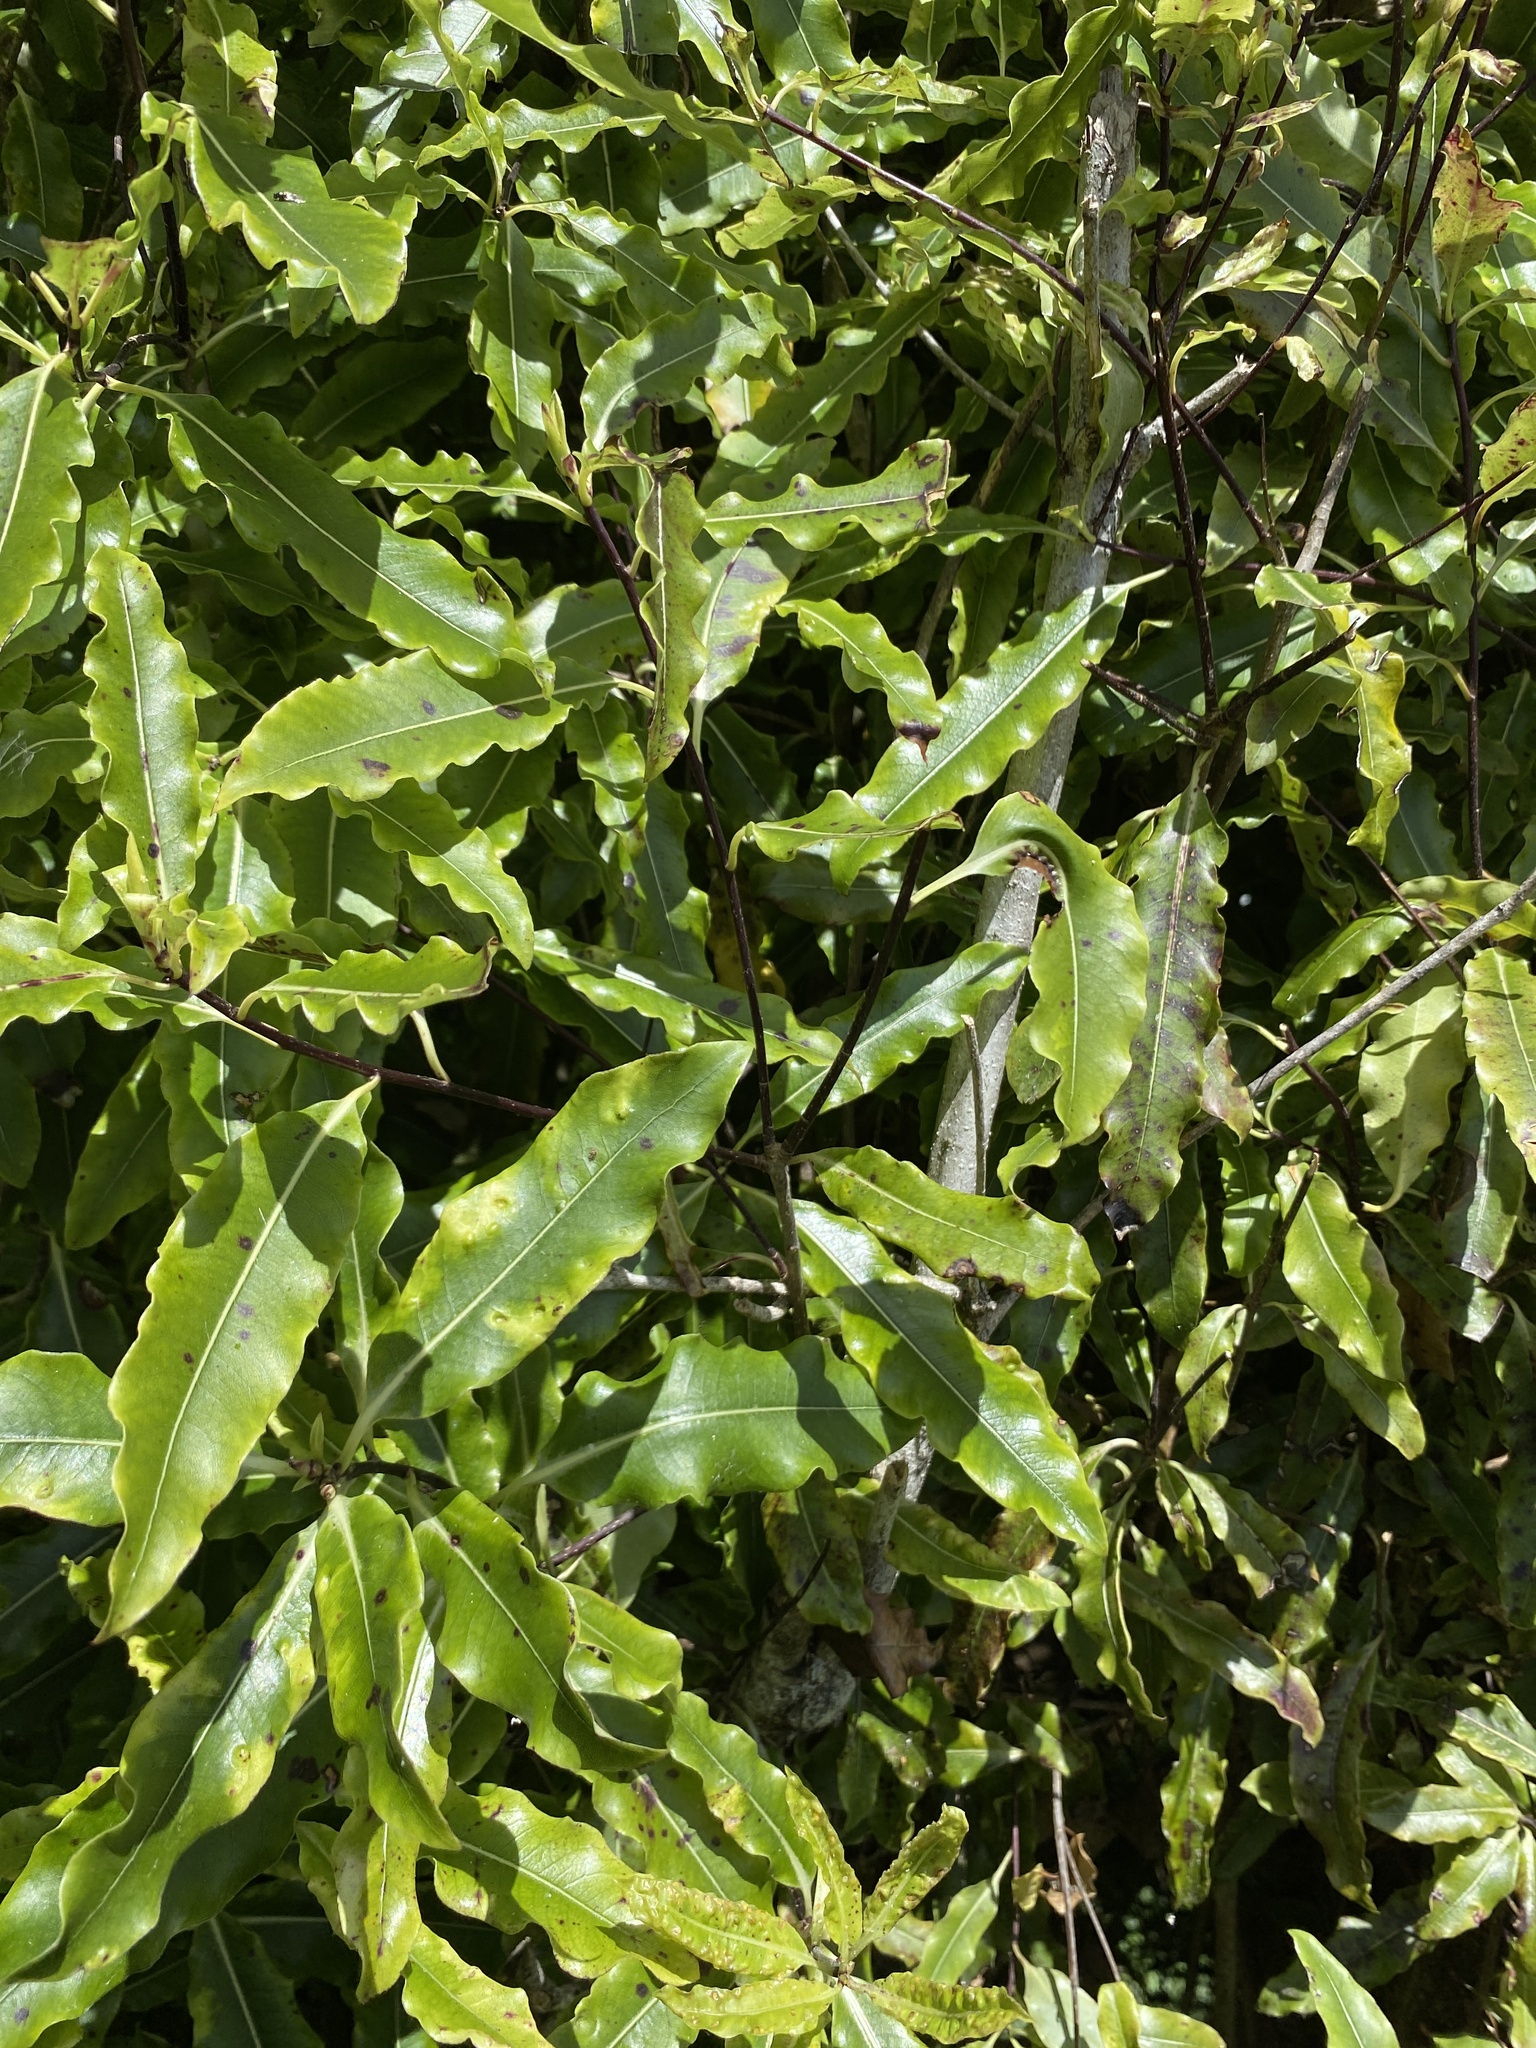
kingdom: Plantae
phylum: Tracheophyta
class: Magnoliopsida
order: Apiales
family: Pittosporaceae
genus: Pittosporum
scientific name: Pittosporum eugenioides
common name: Lemonwood
